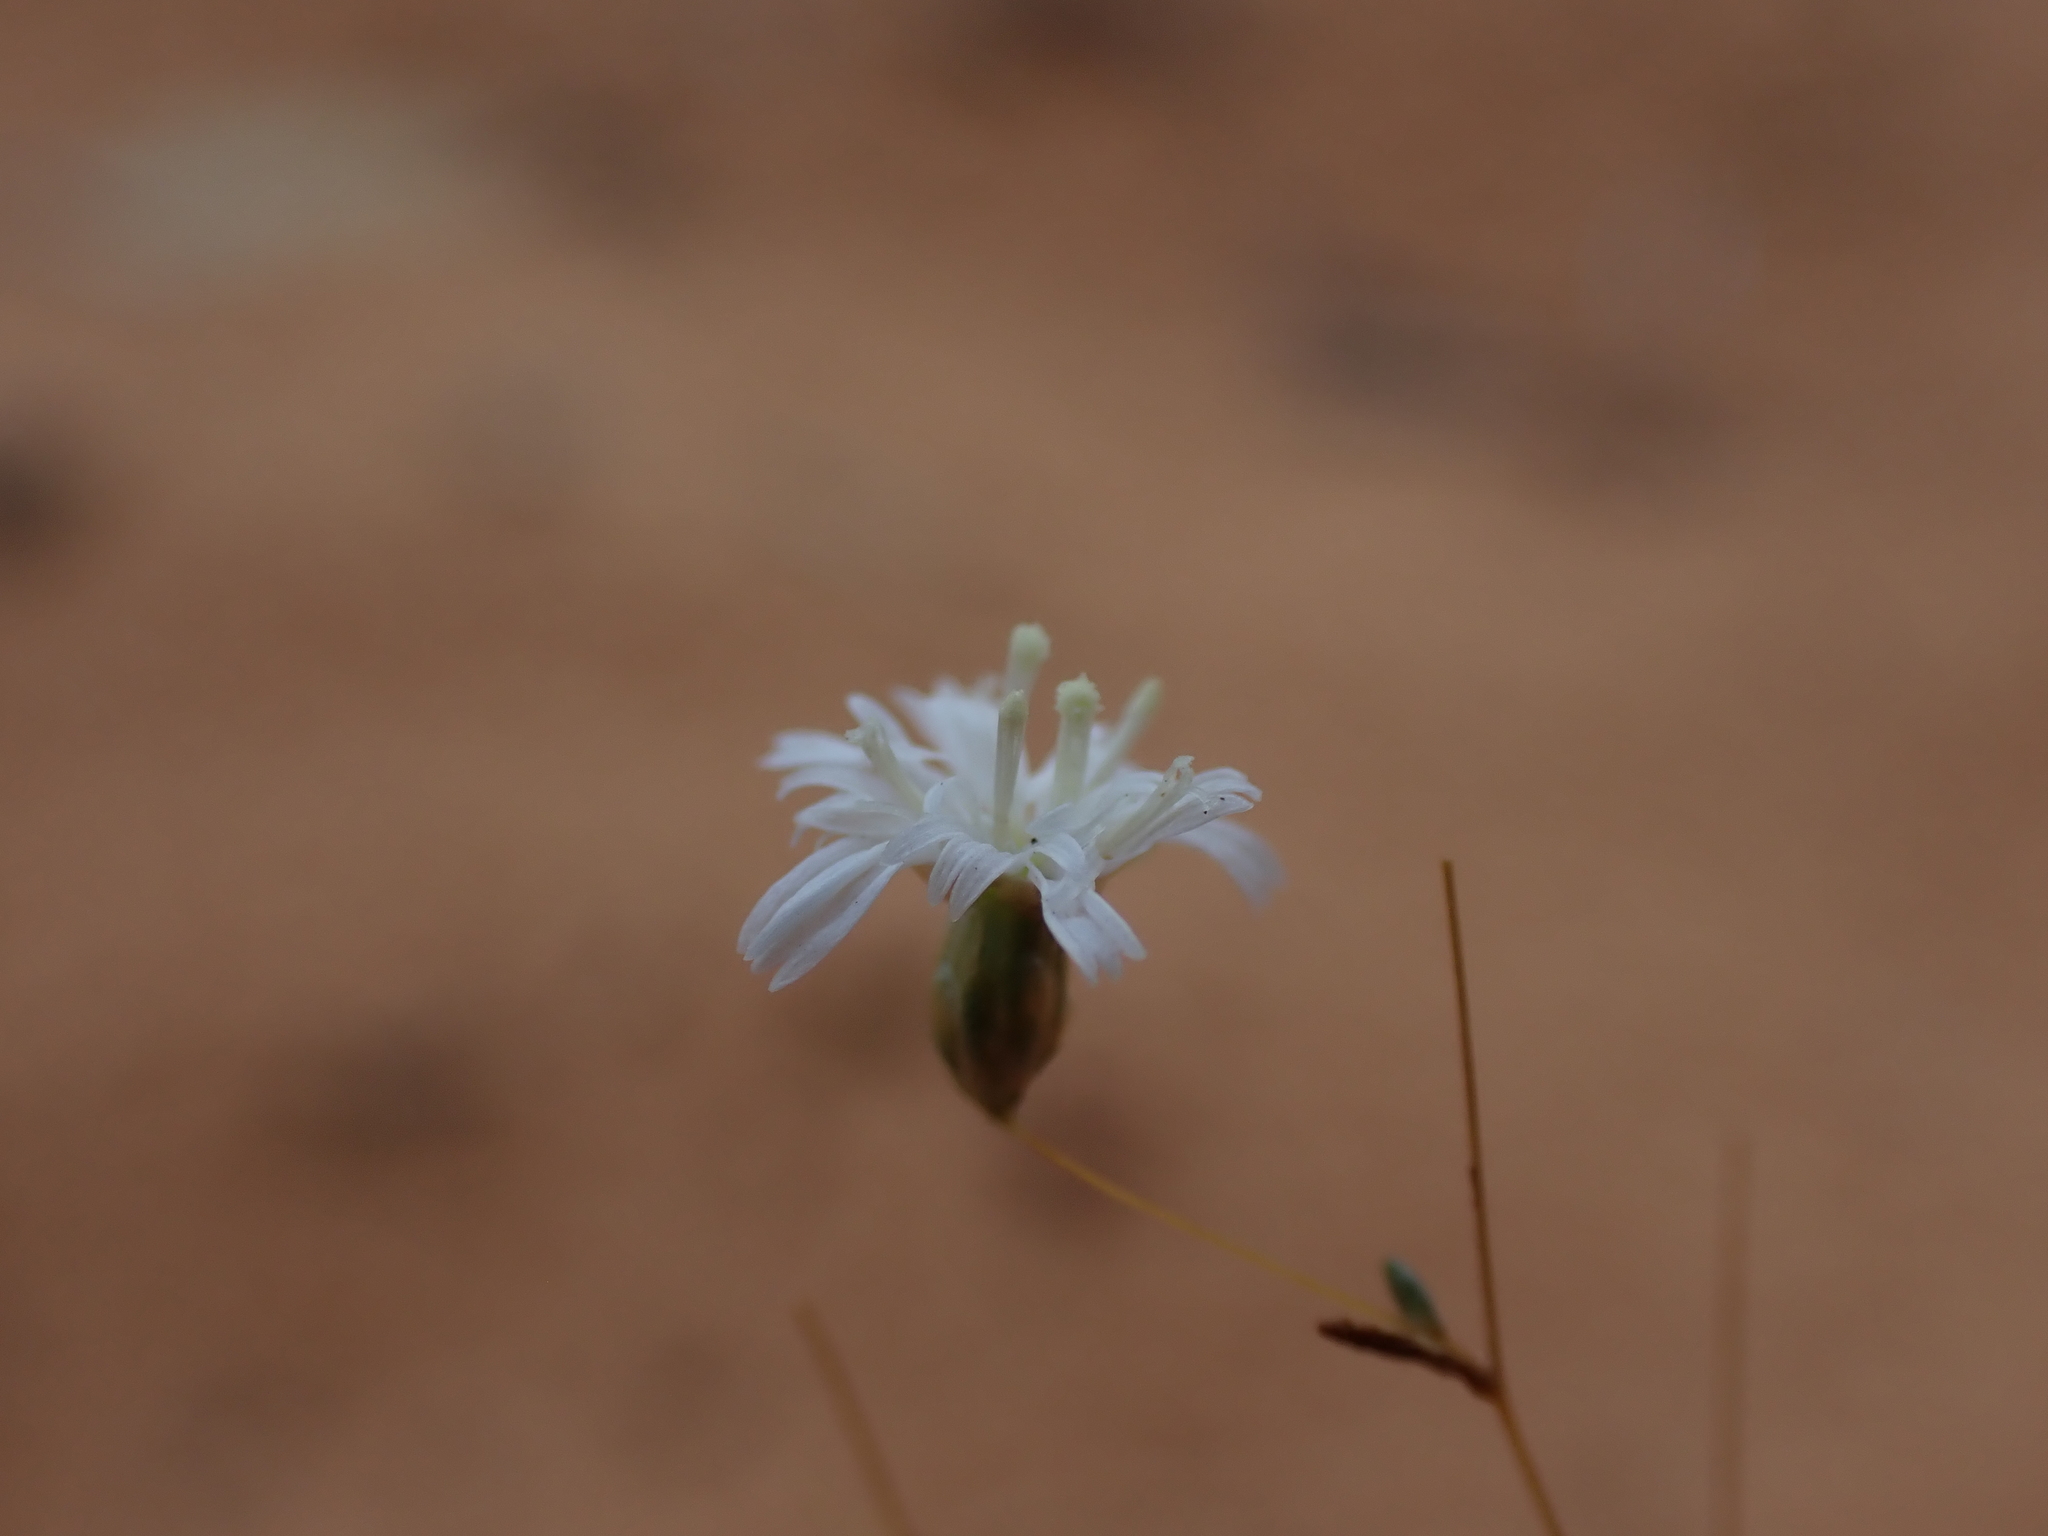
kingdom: Plantae
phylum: Tracheophyta
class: Magnoliopsida
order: Asterales
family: Asteraceae
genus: Siemssenia
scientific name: Siemssenia capillaris
